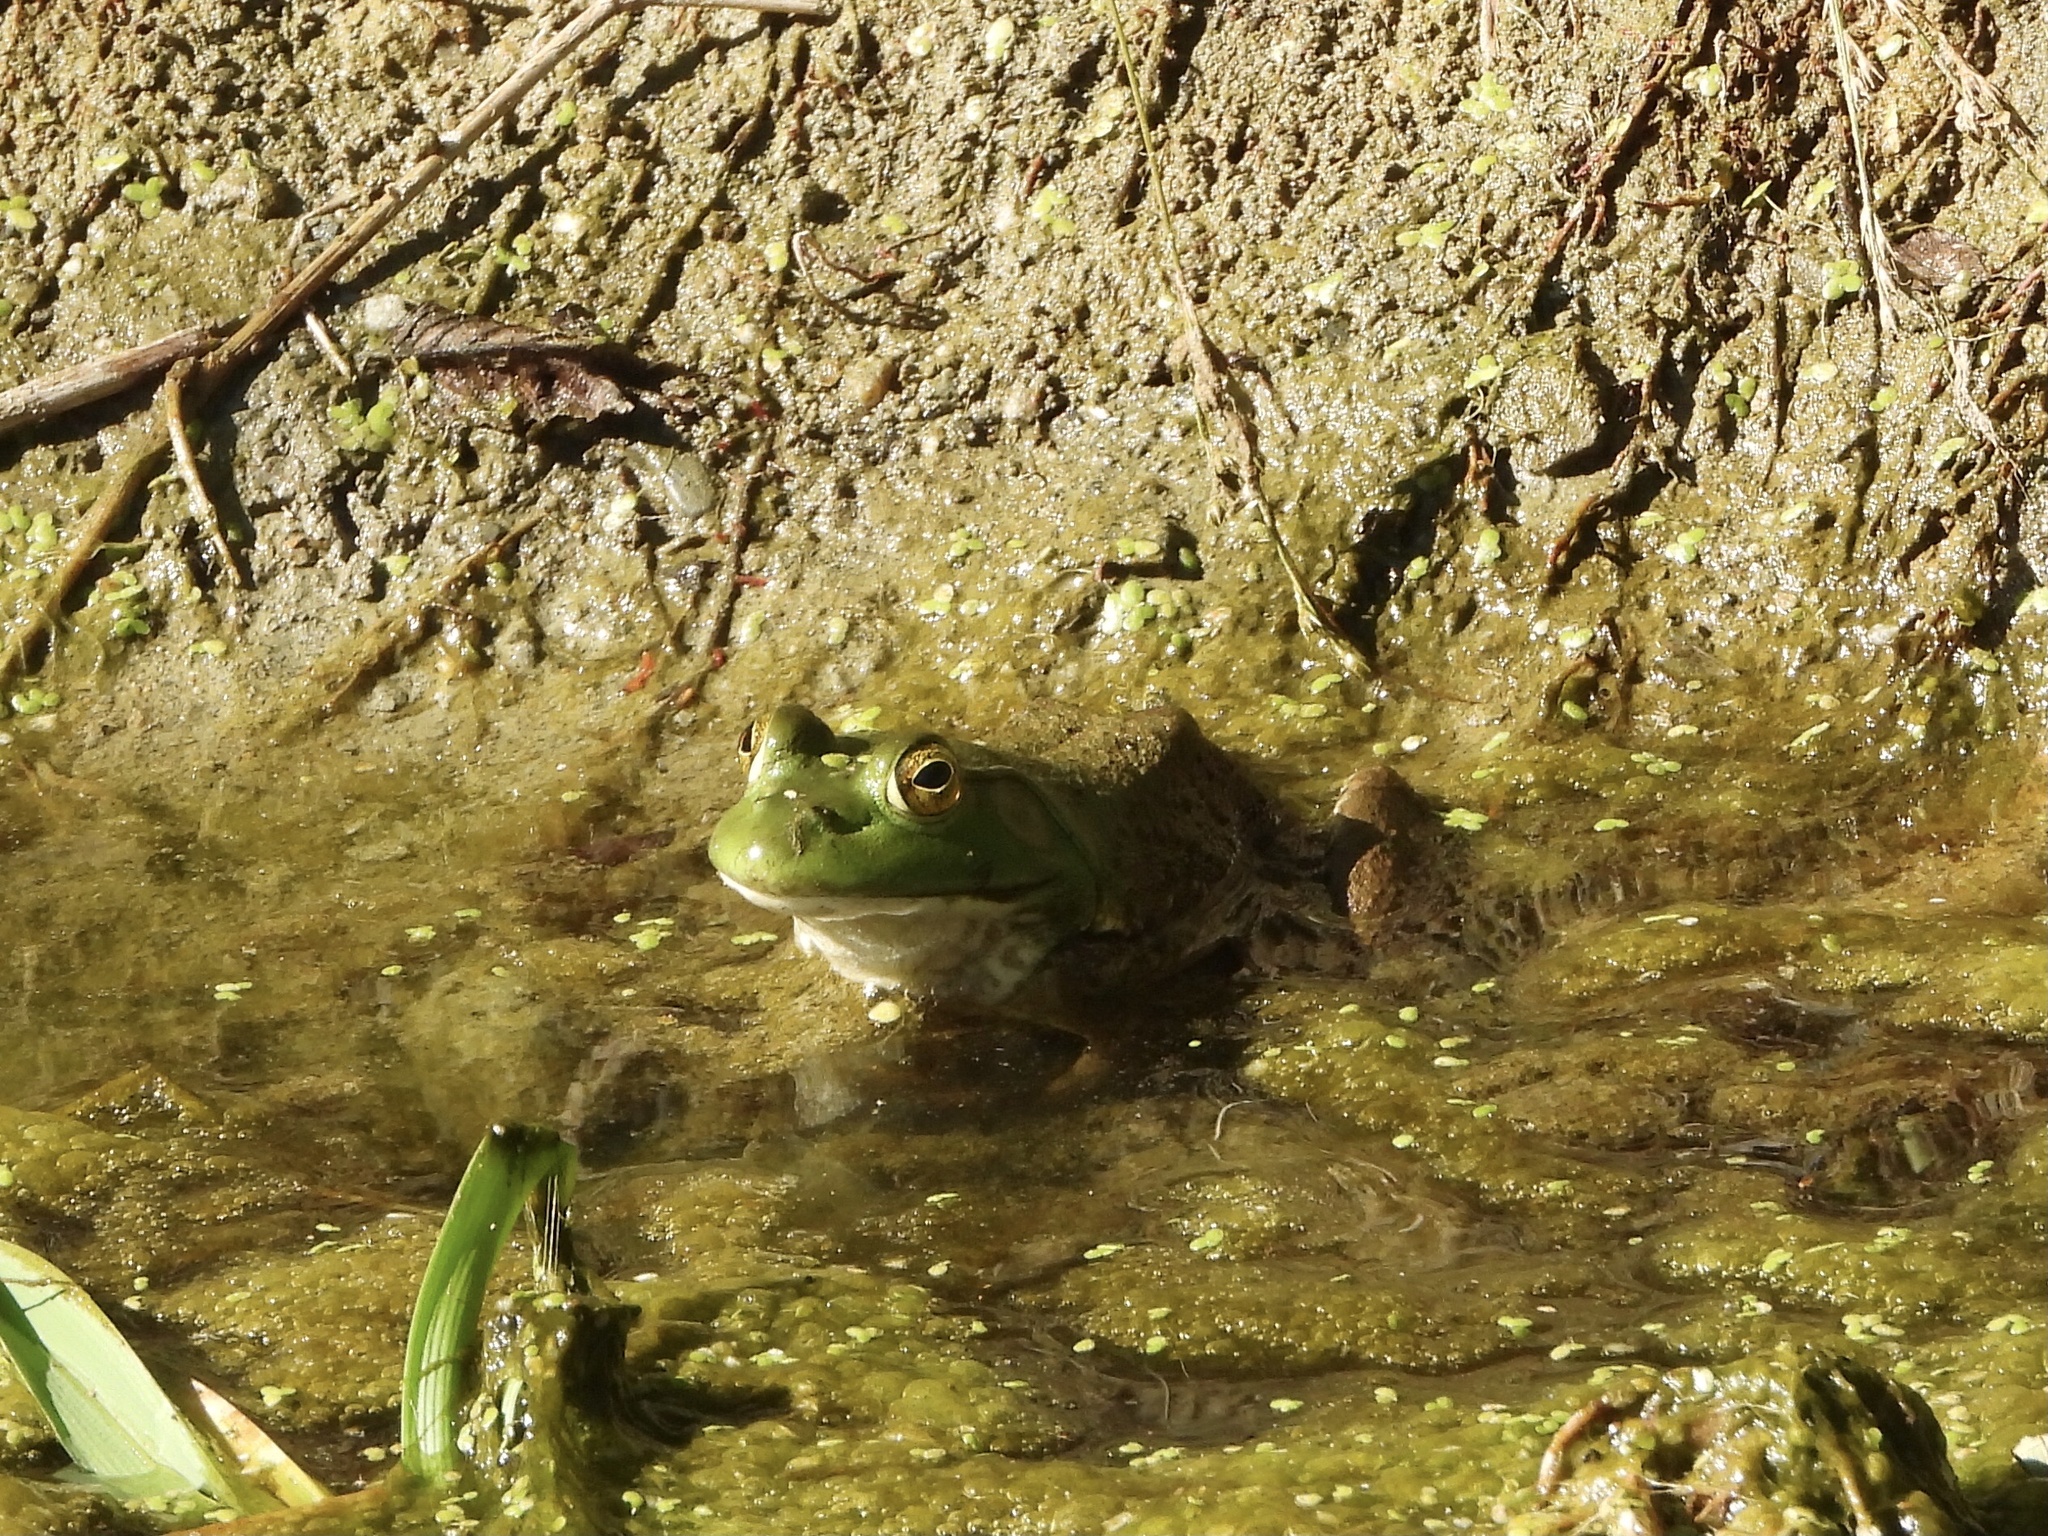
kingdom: Animalia
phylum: Chordata
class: Amphibia
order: Anura
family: Ranidae
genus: Lithobates
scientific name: Lithobates catesbeianus
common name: American bullfrog
